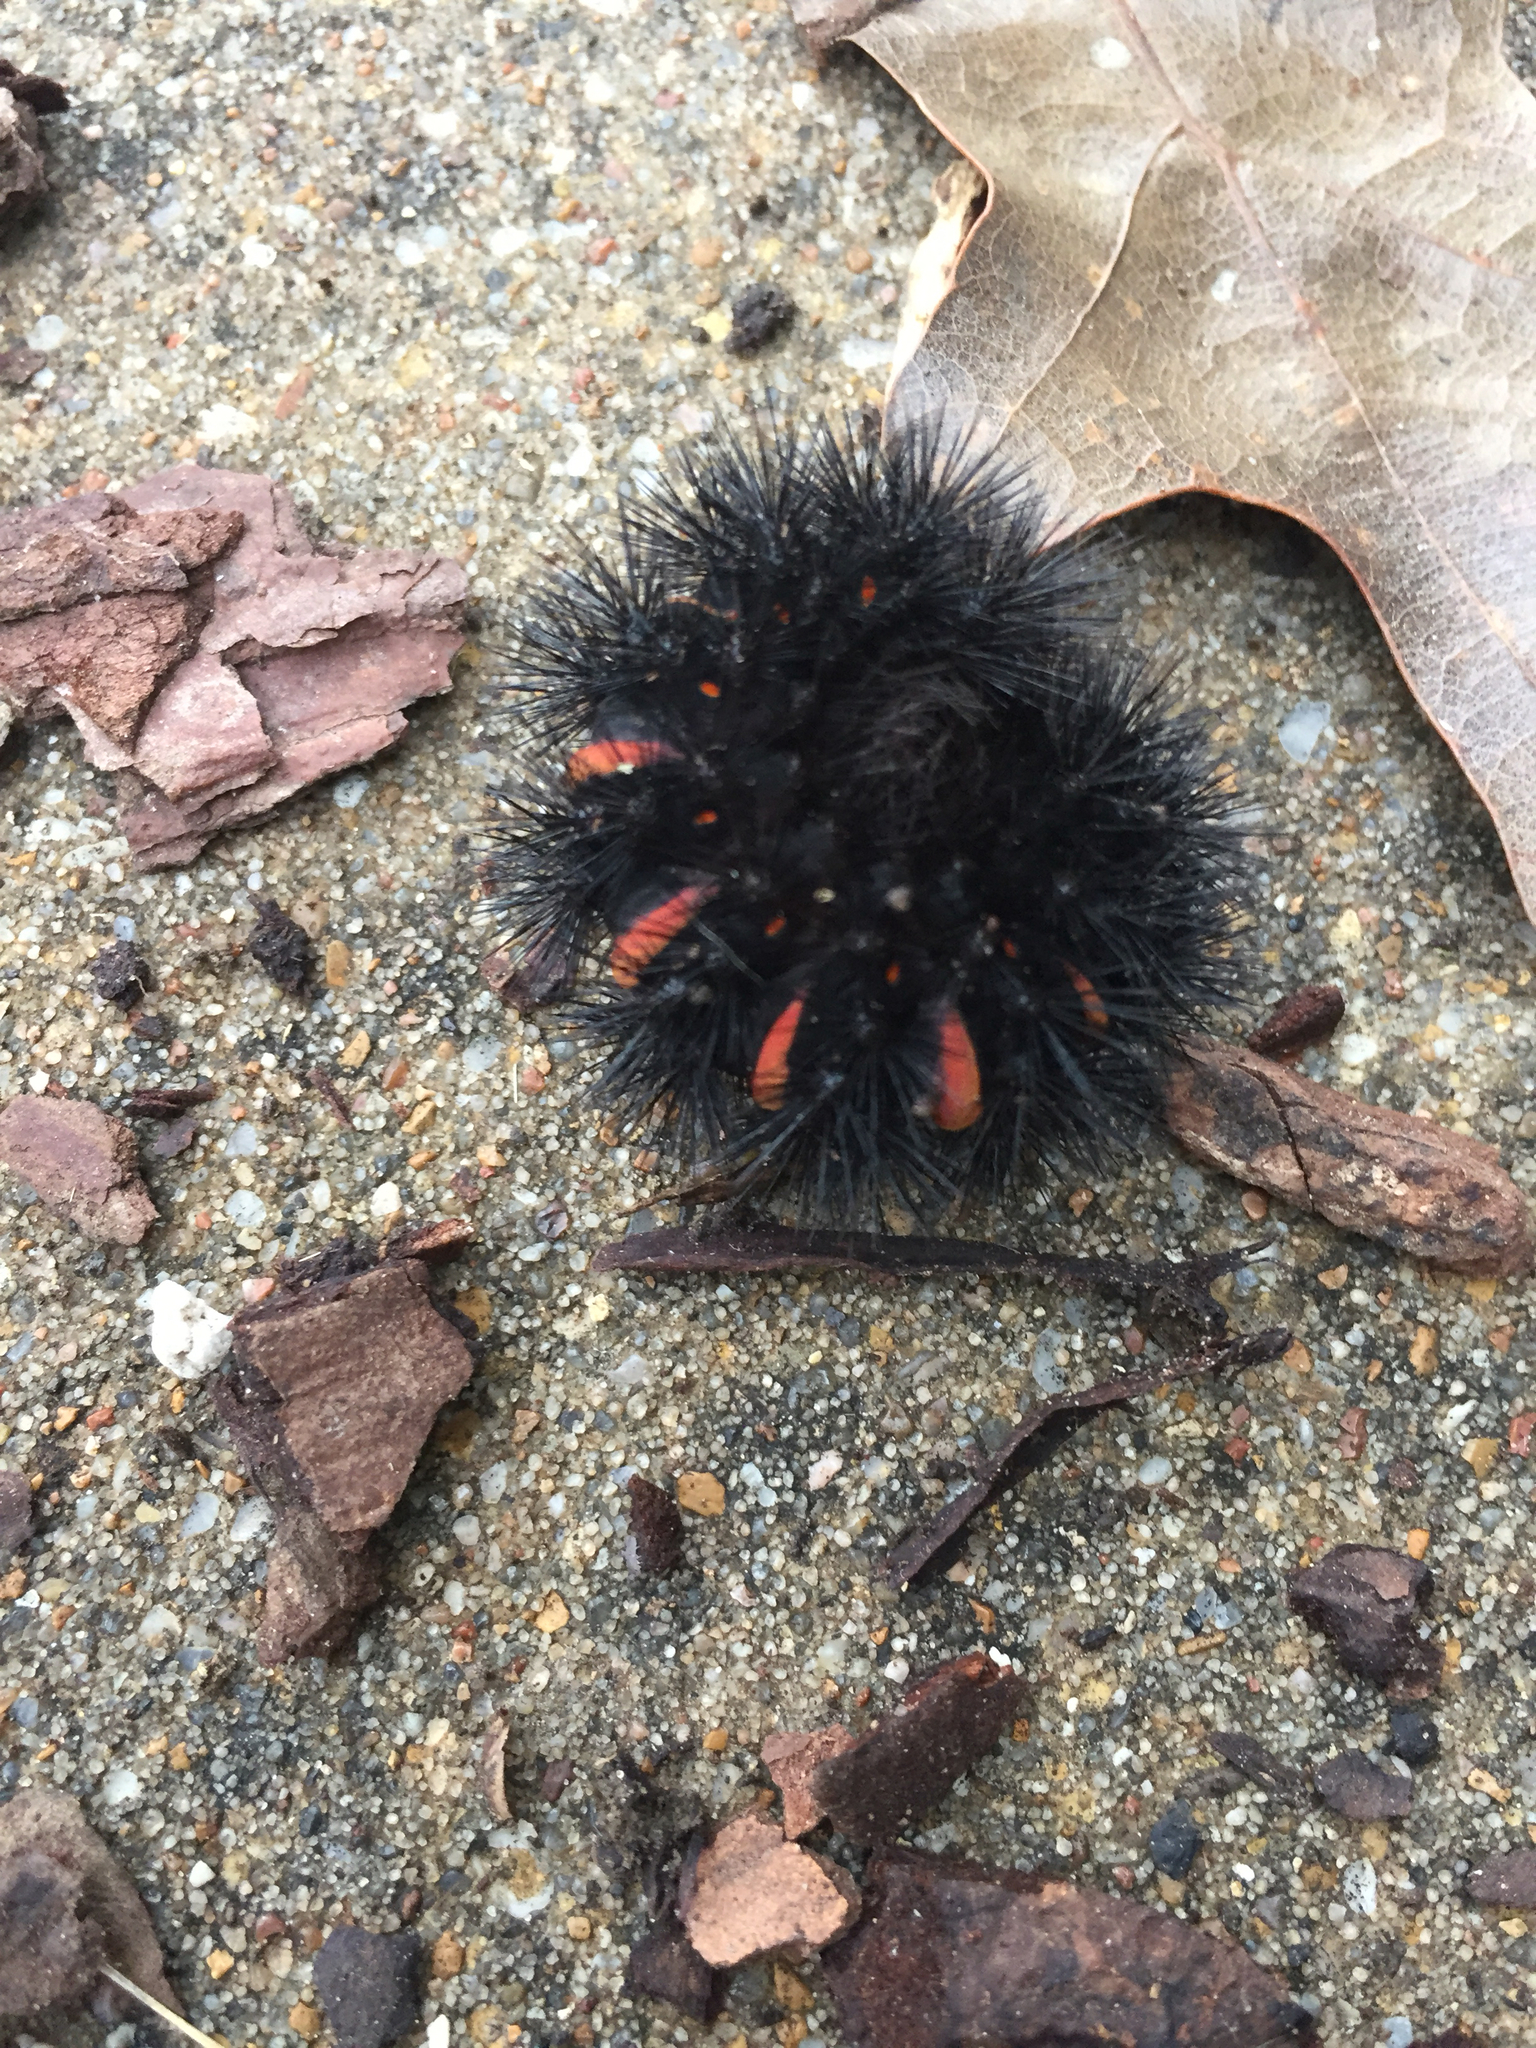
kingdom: Animalia
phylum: Arthropoda
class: Insecta
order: Lepidoptera
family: Erebidae
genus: Hypercompe
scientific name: Hypercompe scribonia
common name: Giant leopard moth
